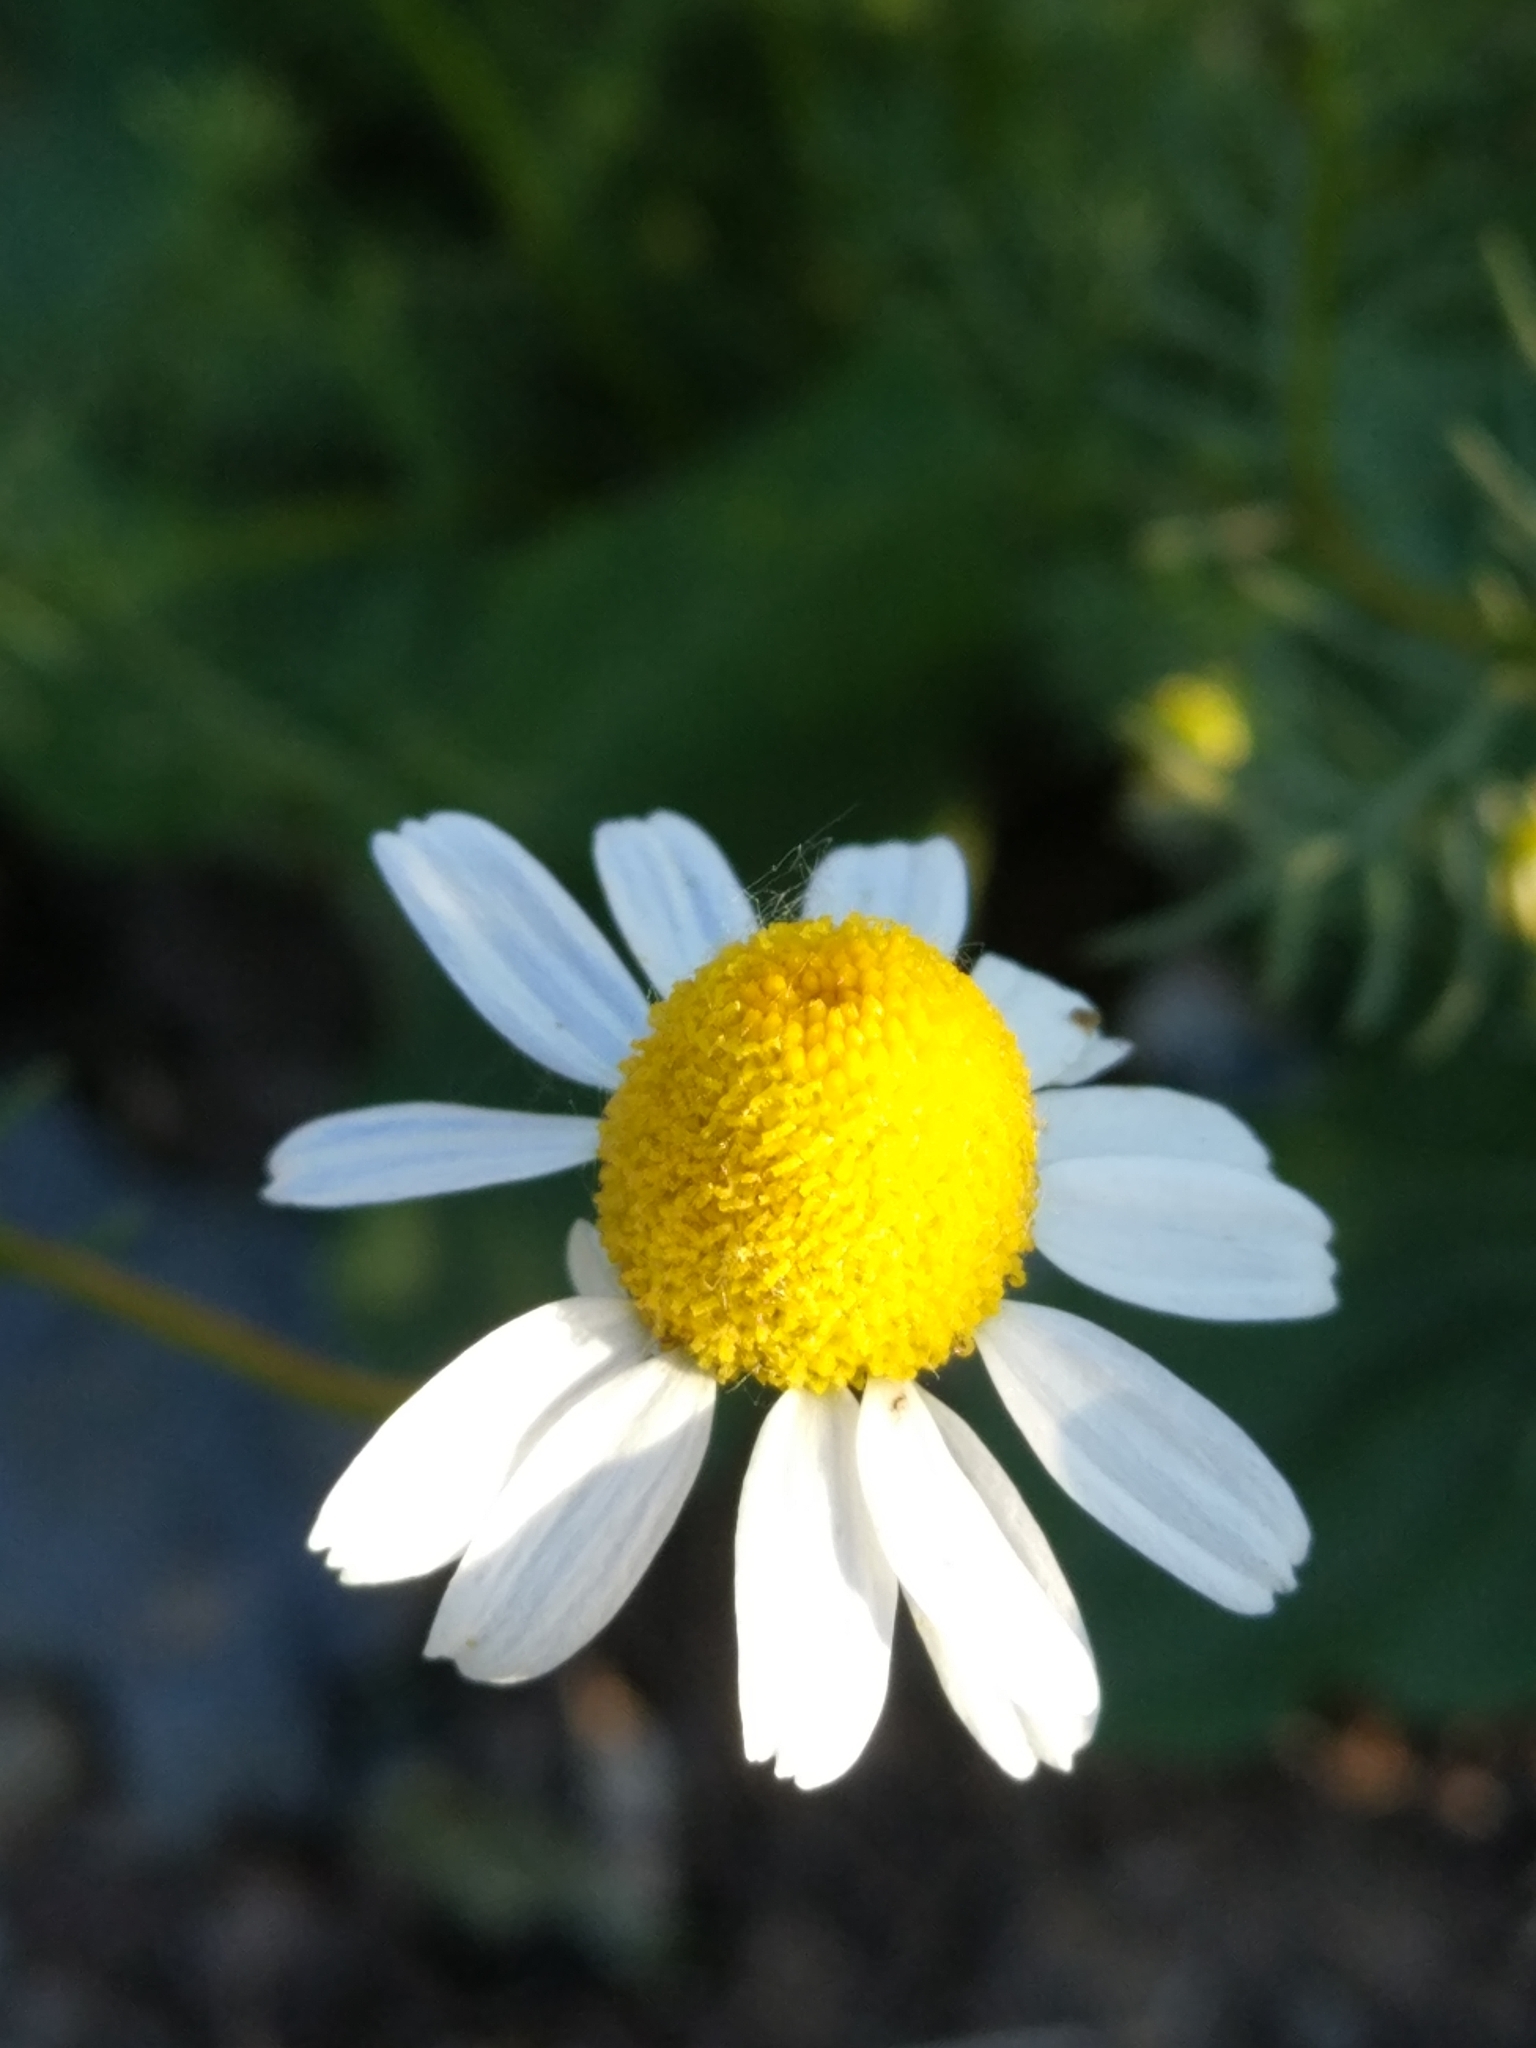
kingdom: Plantae
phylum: Tracheophyta
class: Magnoliopsida
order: Asterales
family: Asteraceae
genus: Matricaria
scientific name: Matricaria chamomilla
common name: Scented mayweed
